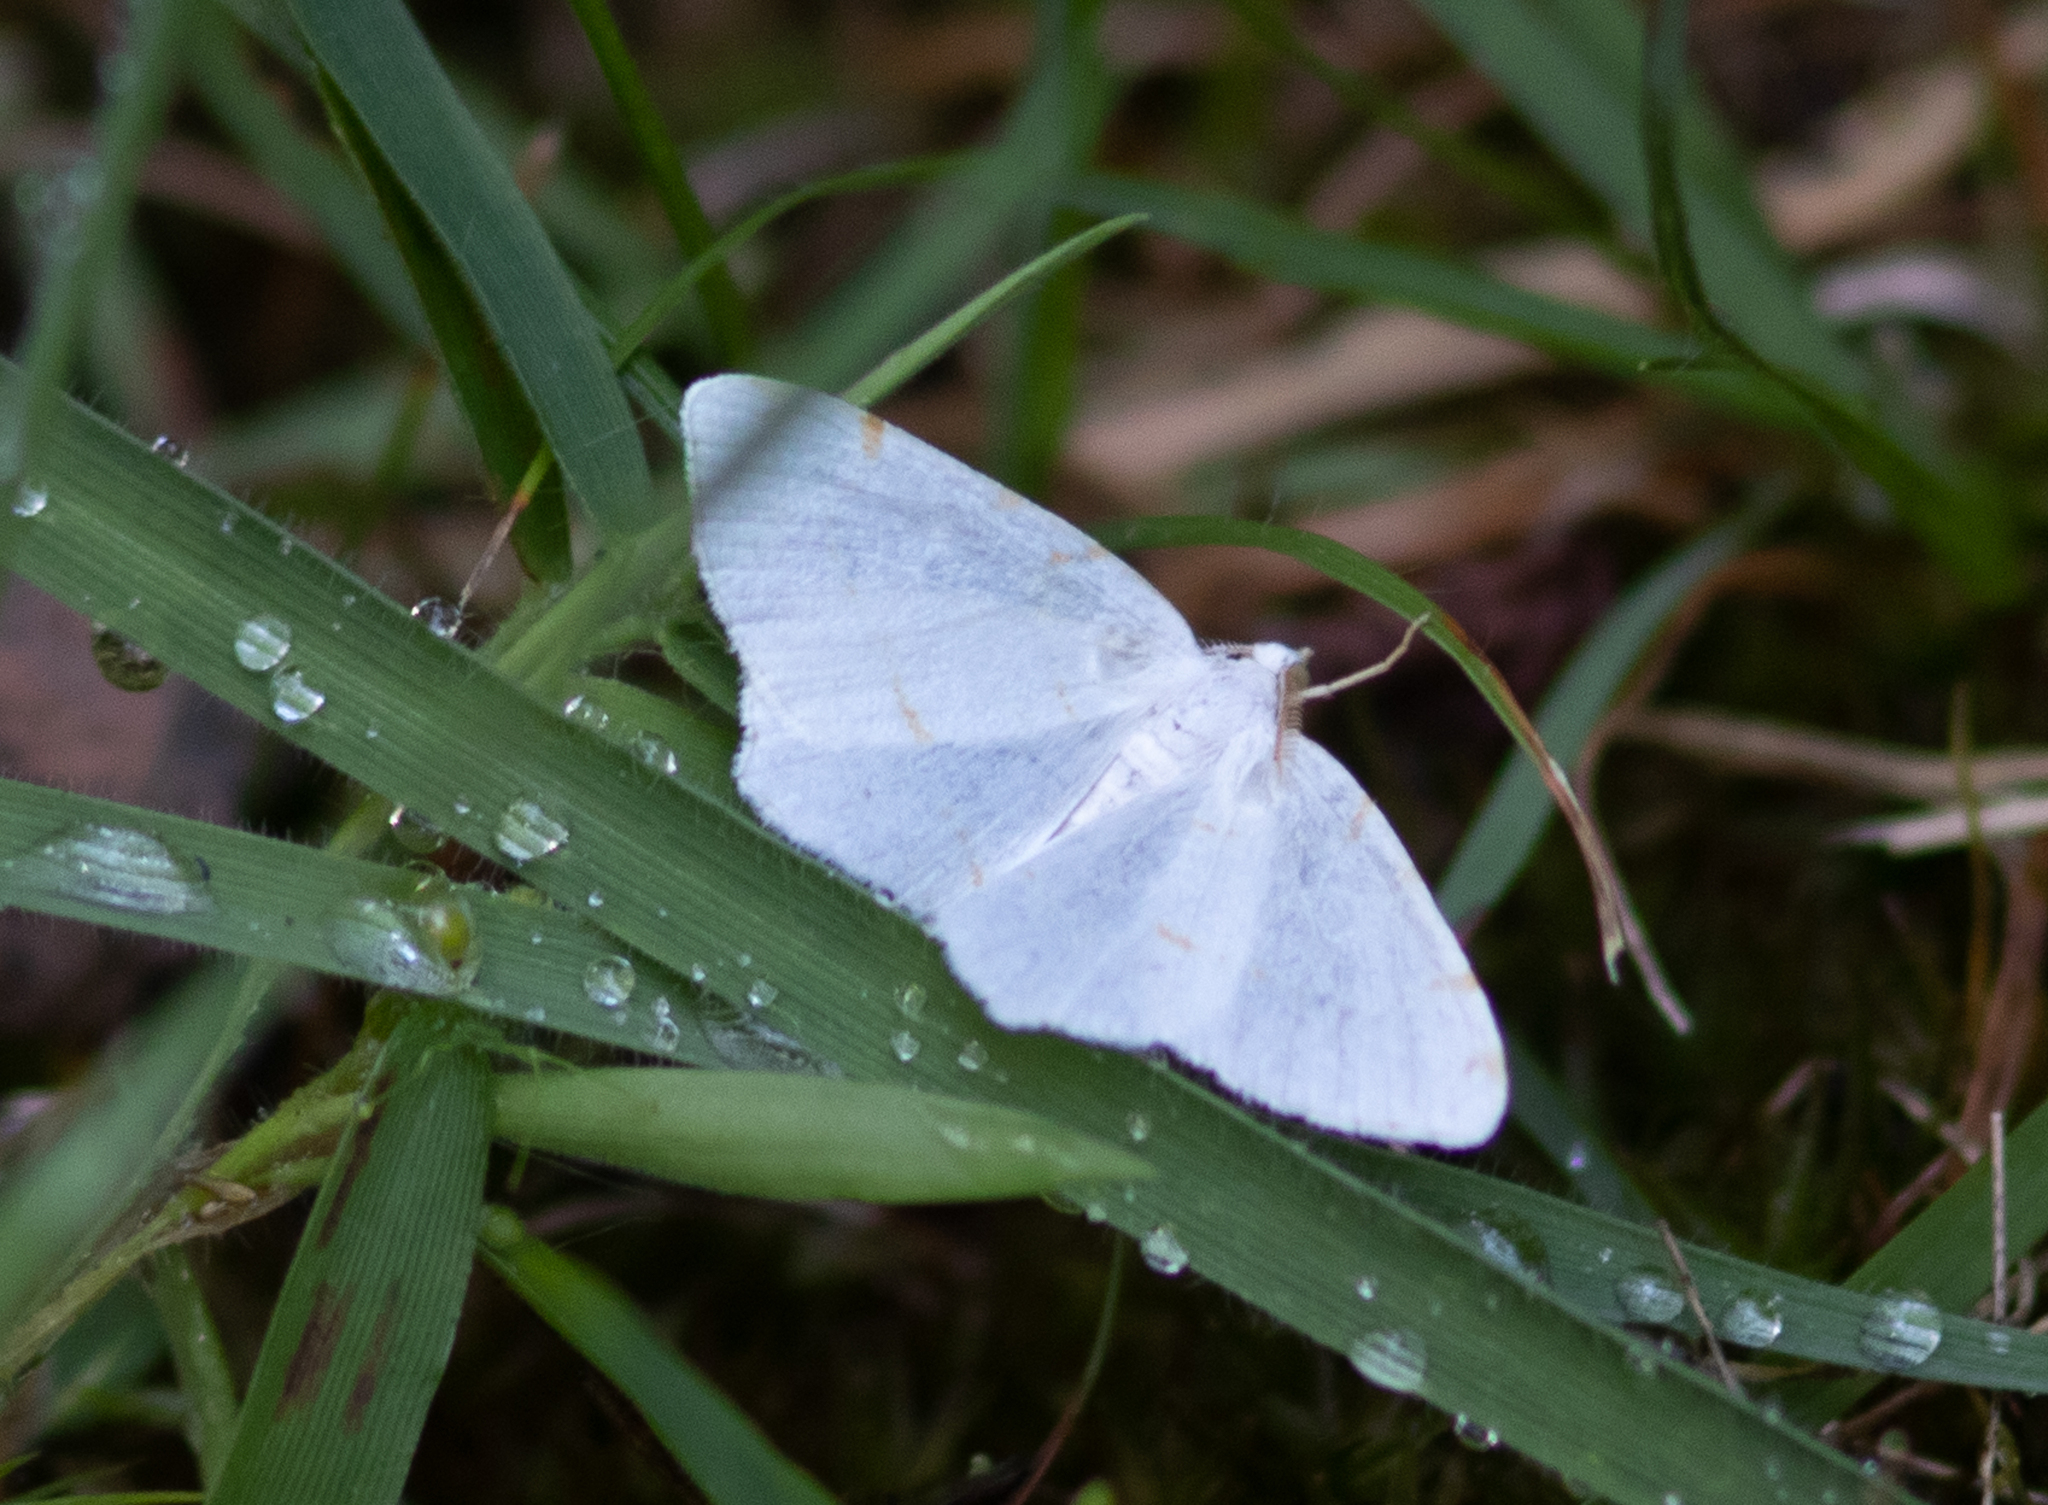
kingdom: Animalia
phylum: Arthropoda
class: Insecta
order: Lepidoptera
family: Geometridae
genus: Macaria
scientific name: Macaria pustularia
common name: Lesser maple spanworm moth
